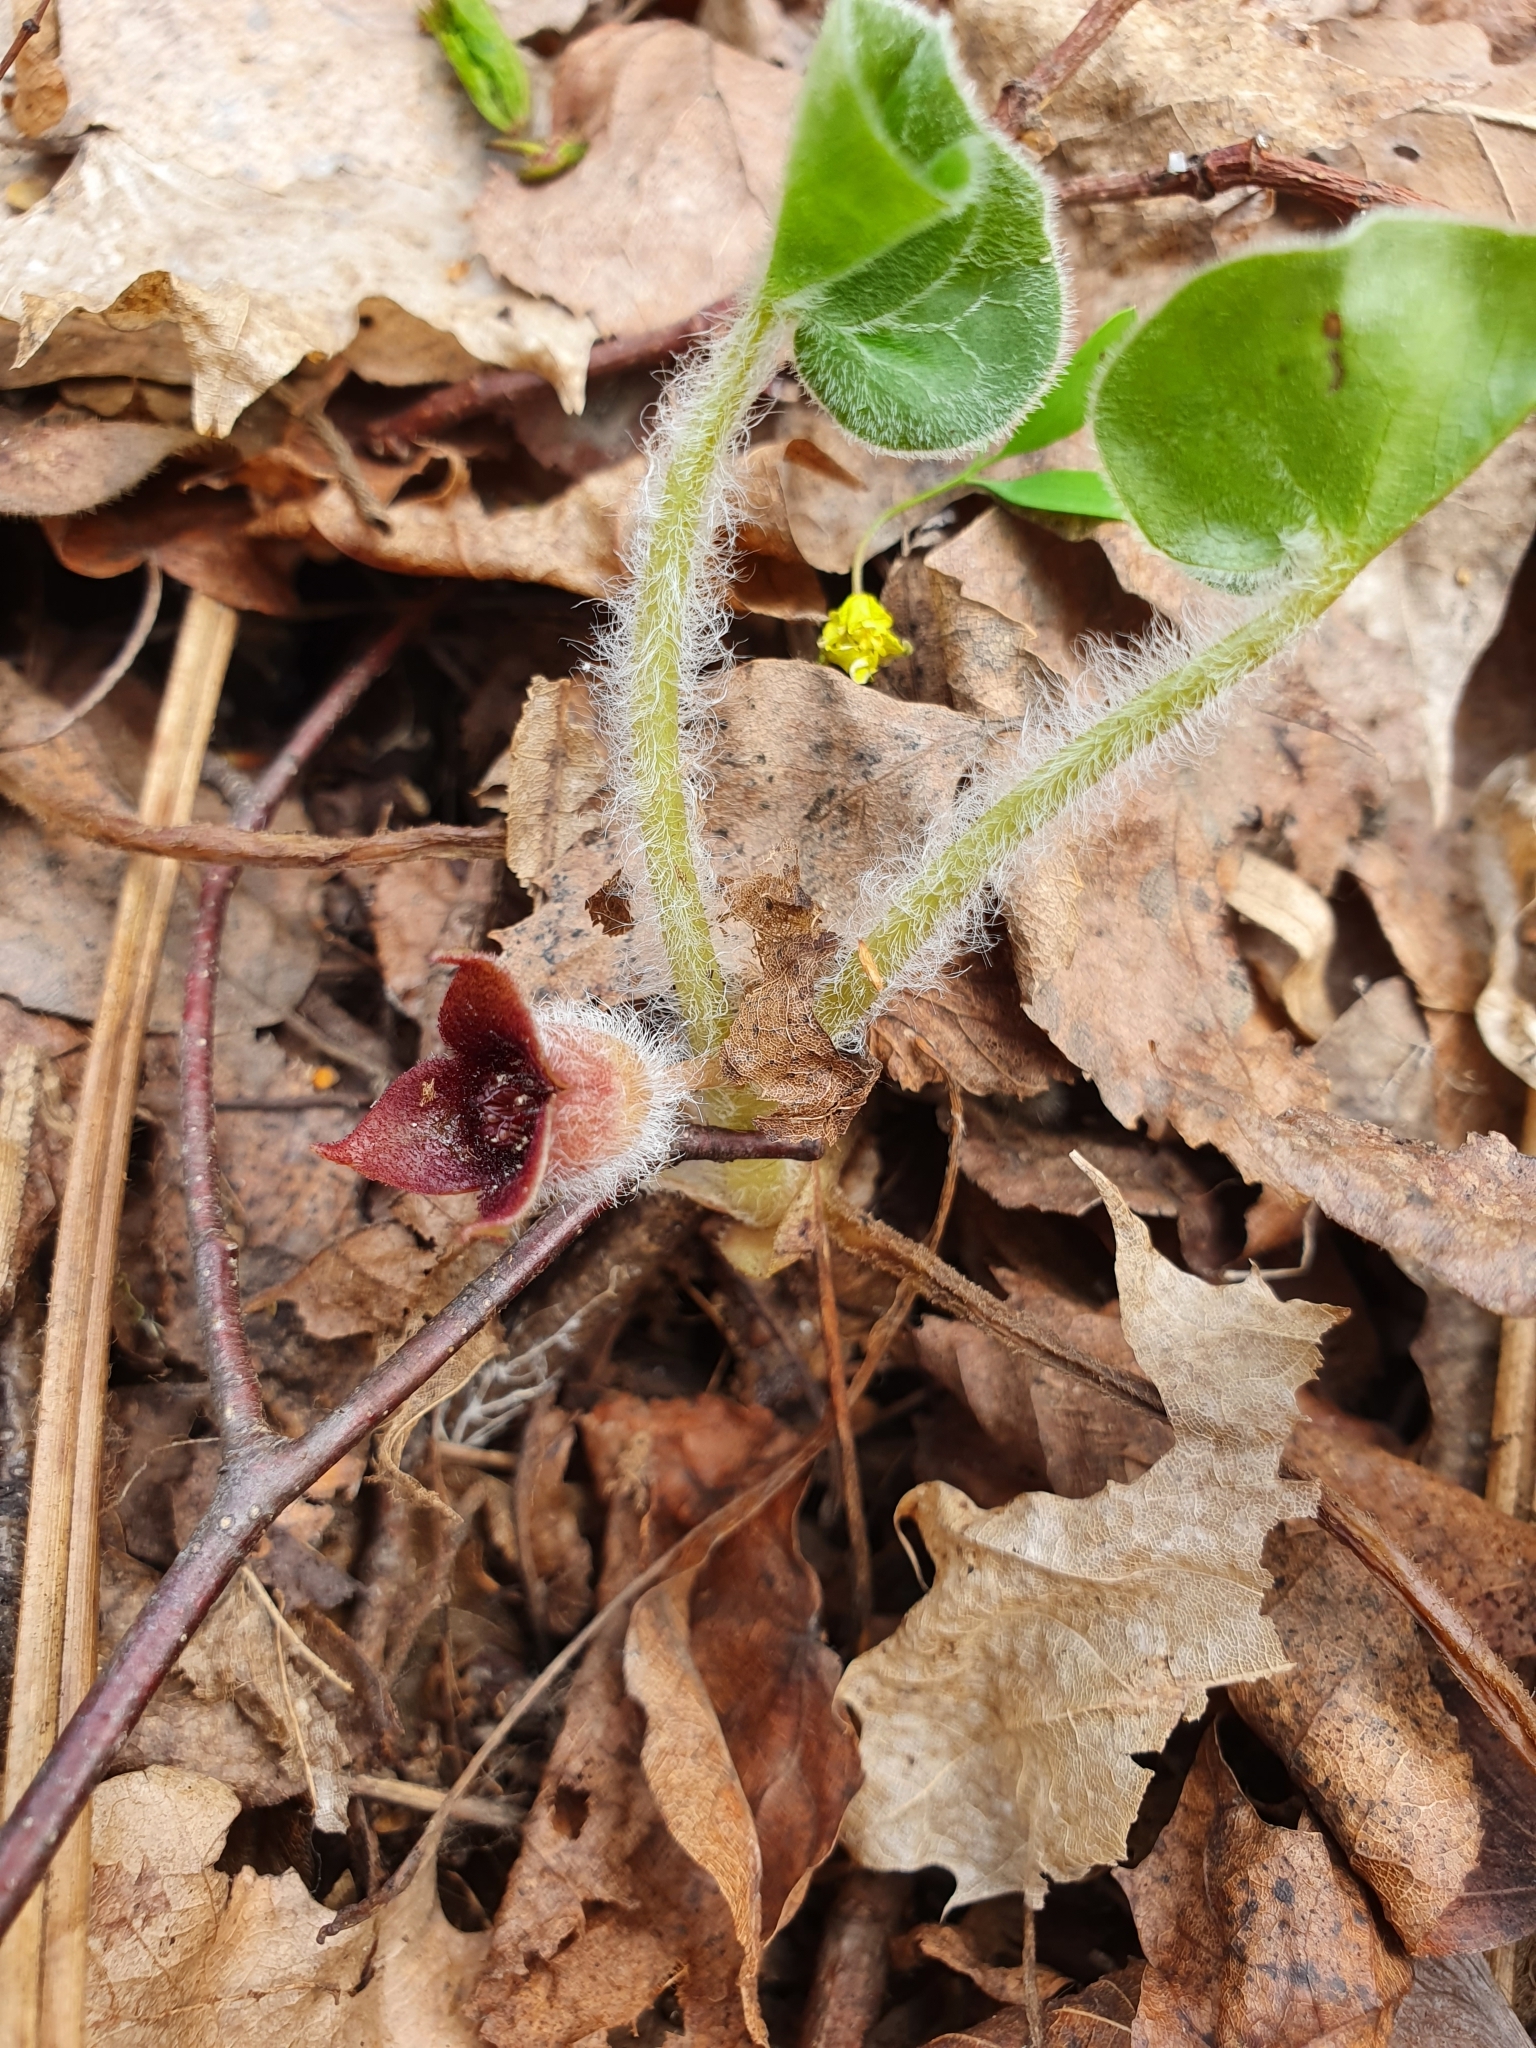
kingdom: Plantae
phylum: Tracheophyta
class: Magnoliopsida
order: Piperales
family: Aristolochiaceae
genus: Asarum
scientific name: Asarum europaeum
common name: Asarabacca
